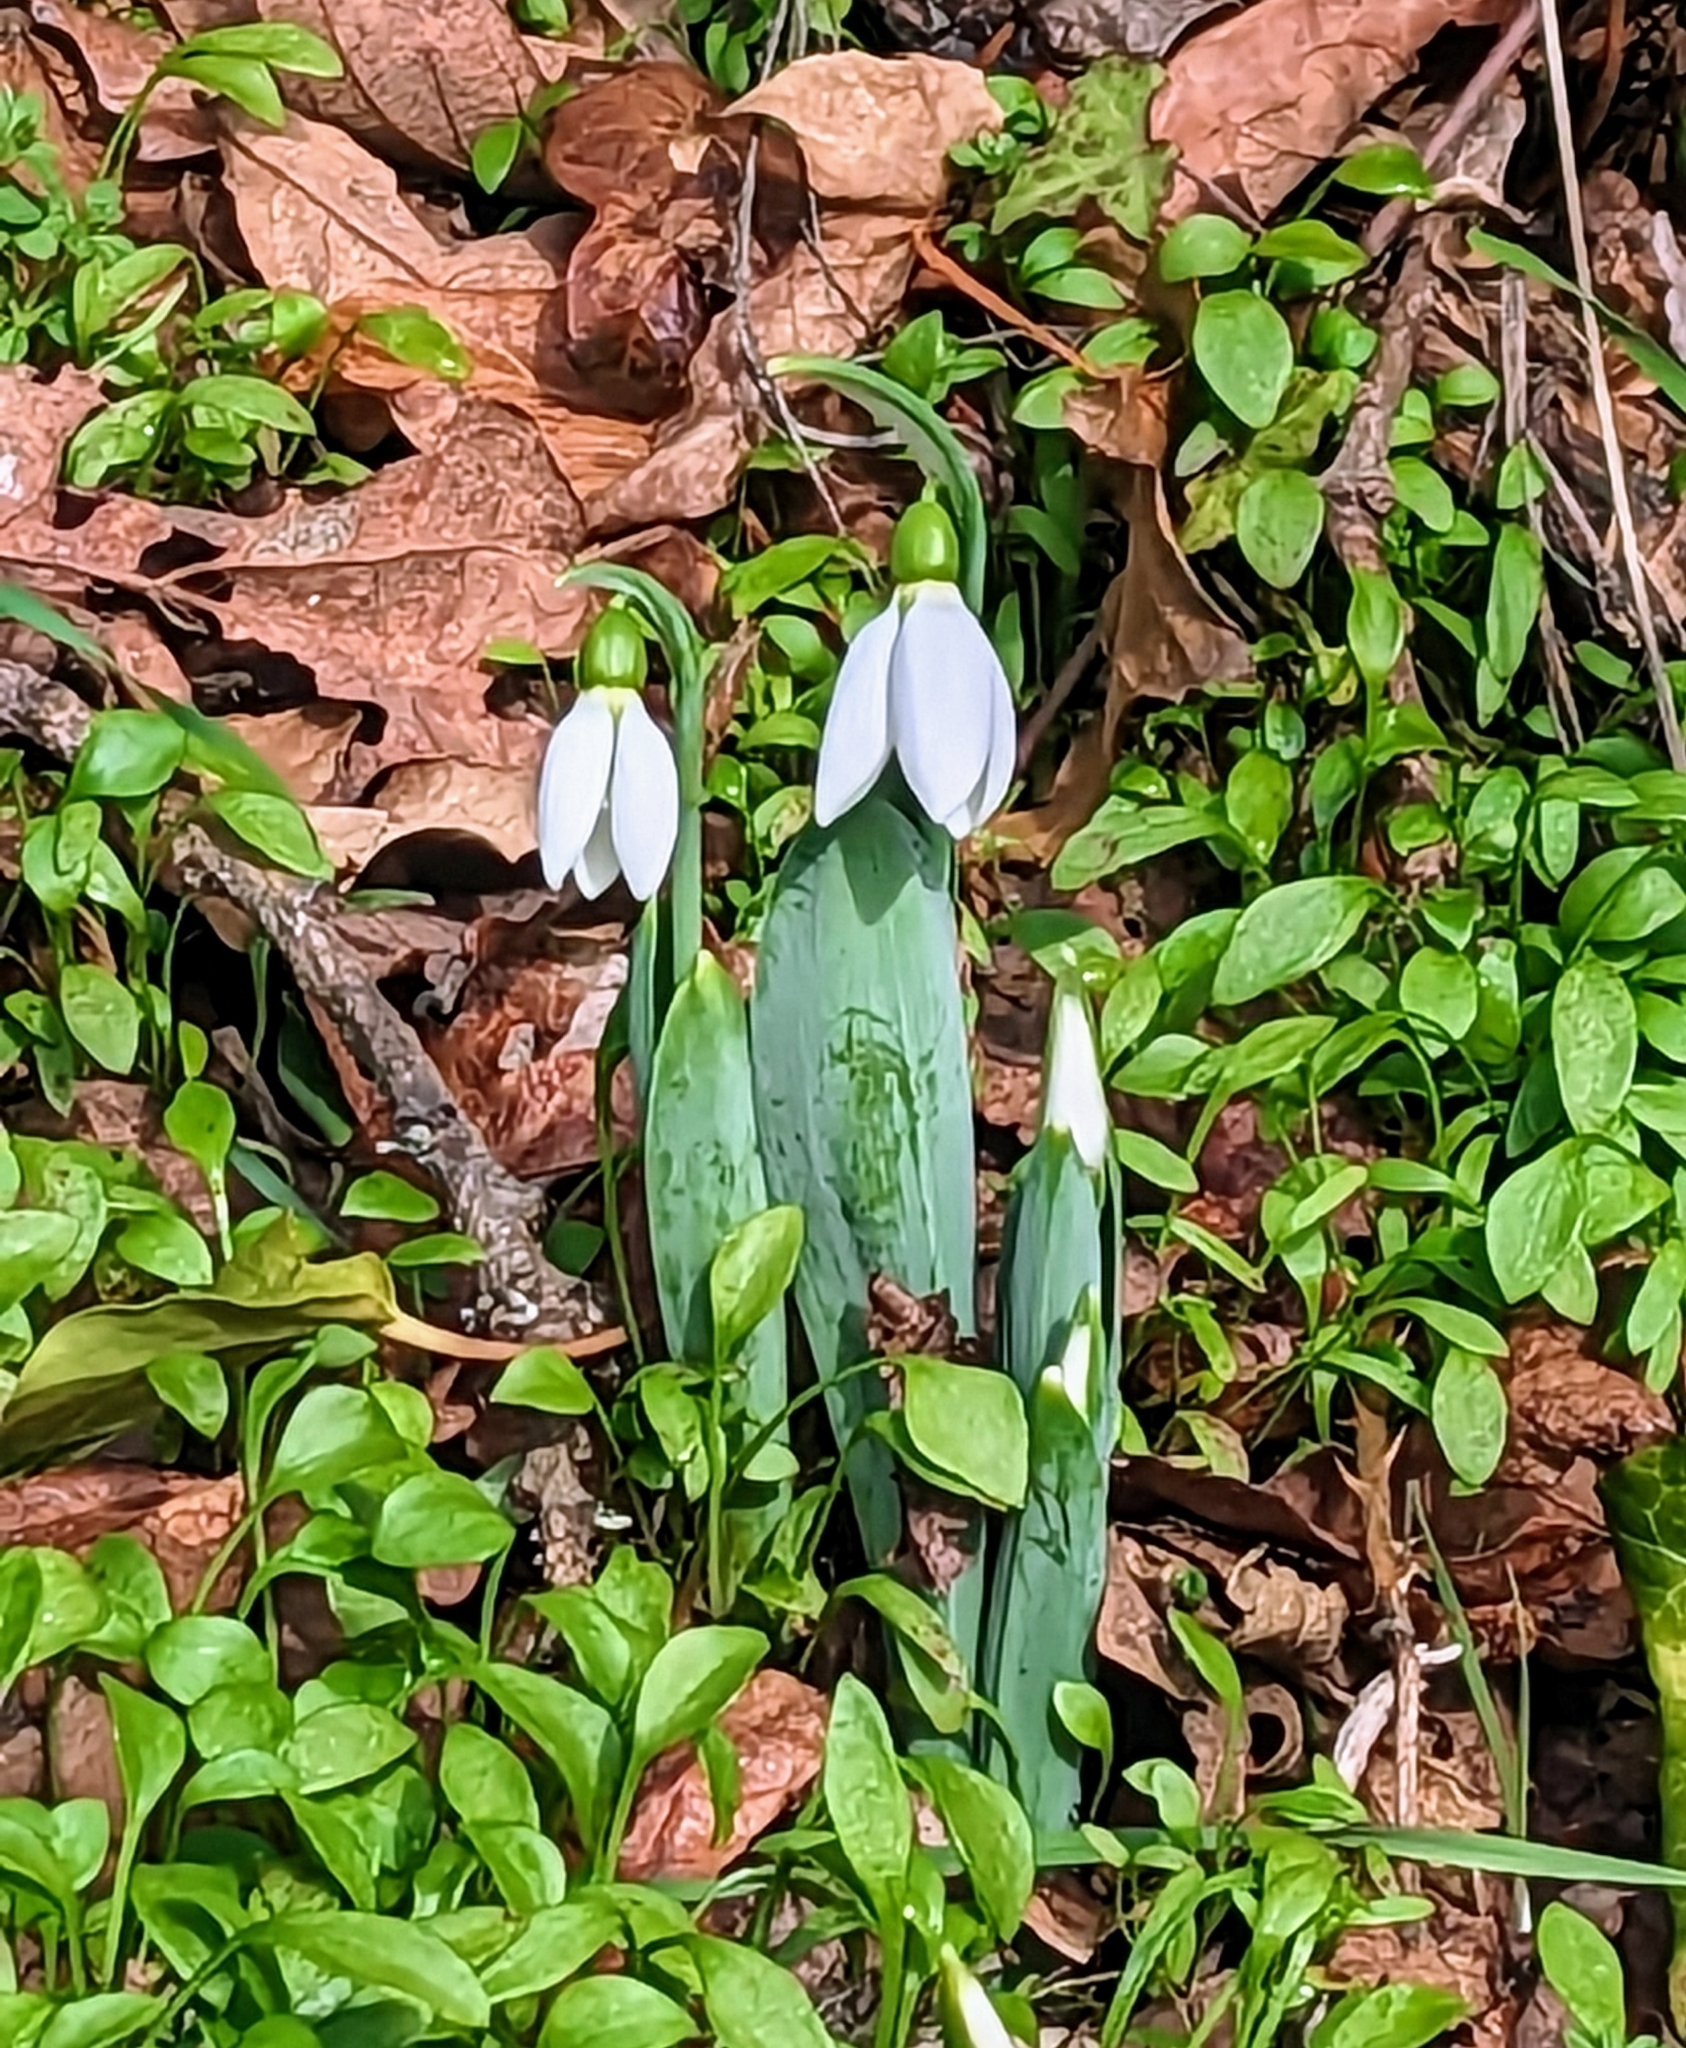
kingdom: Plantae
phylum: Tracheophyta
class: Liliopsida
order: Asparagales
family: Amaryllidaceae
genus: Galanthus
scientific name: Galanthus elwesii
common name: Greater snowdrop
